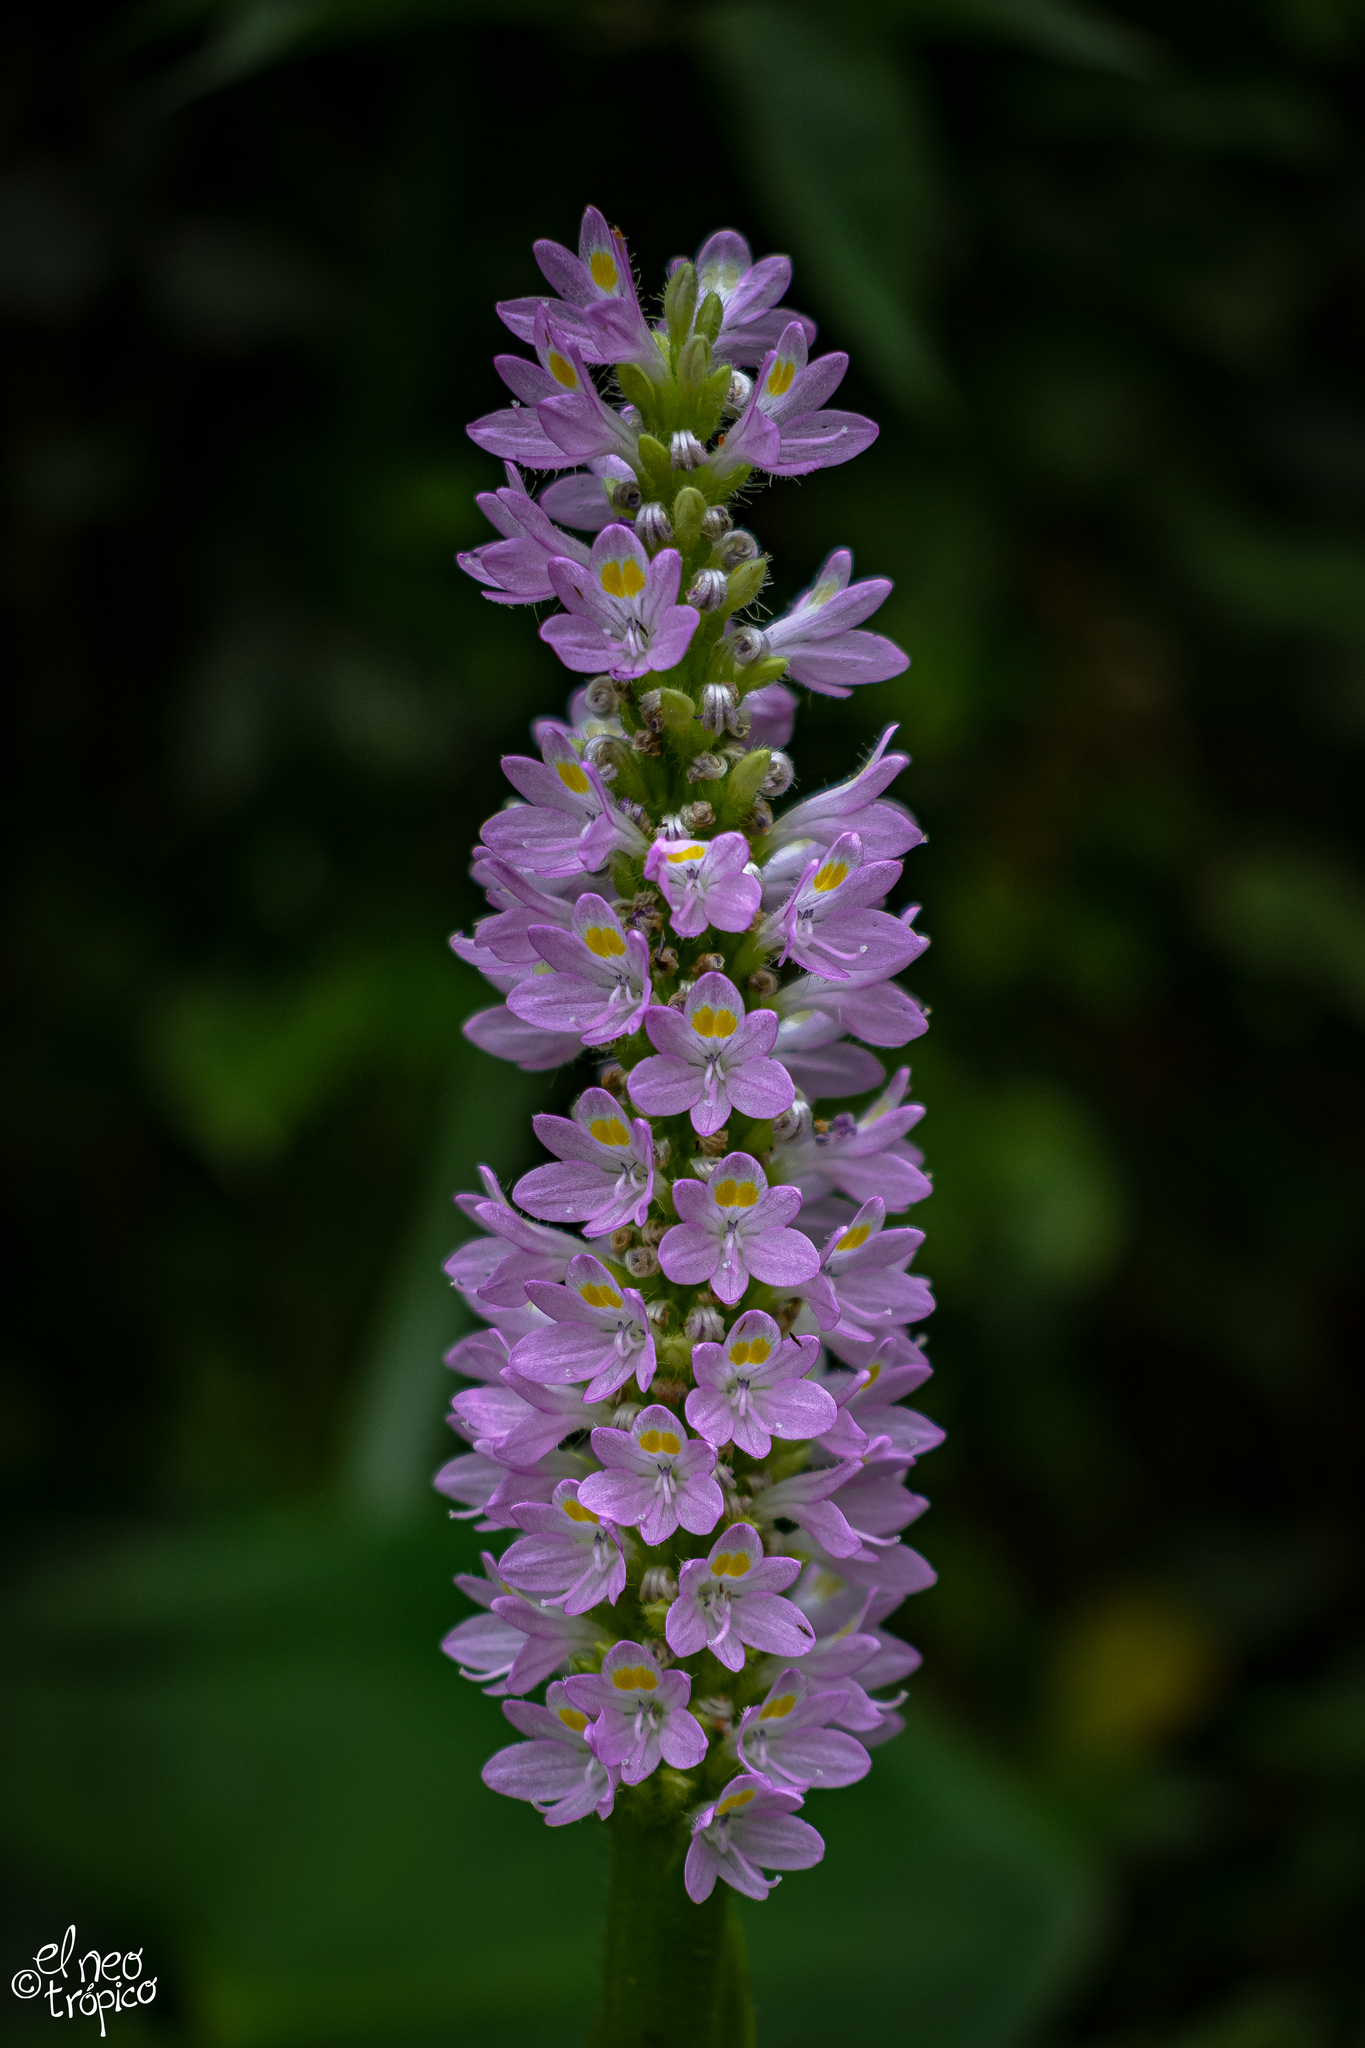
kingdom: Plantae
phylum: Tracheophyta
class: Liliopsida
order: Commelinales
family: Pontederiaceae
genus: Pontederia
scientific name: Pontederia sagittata
